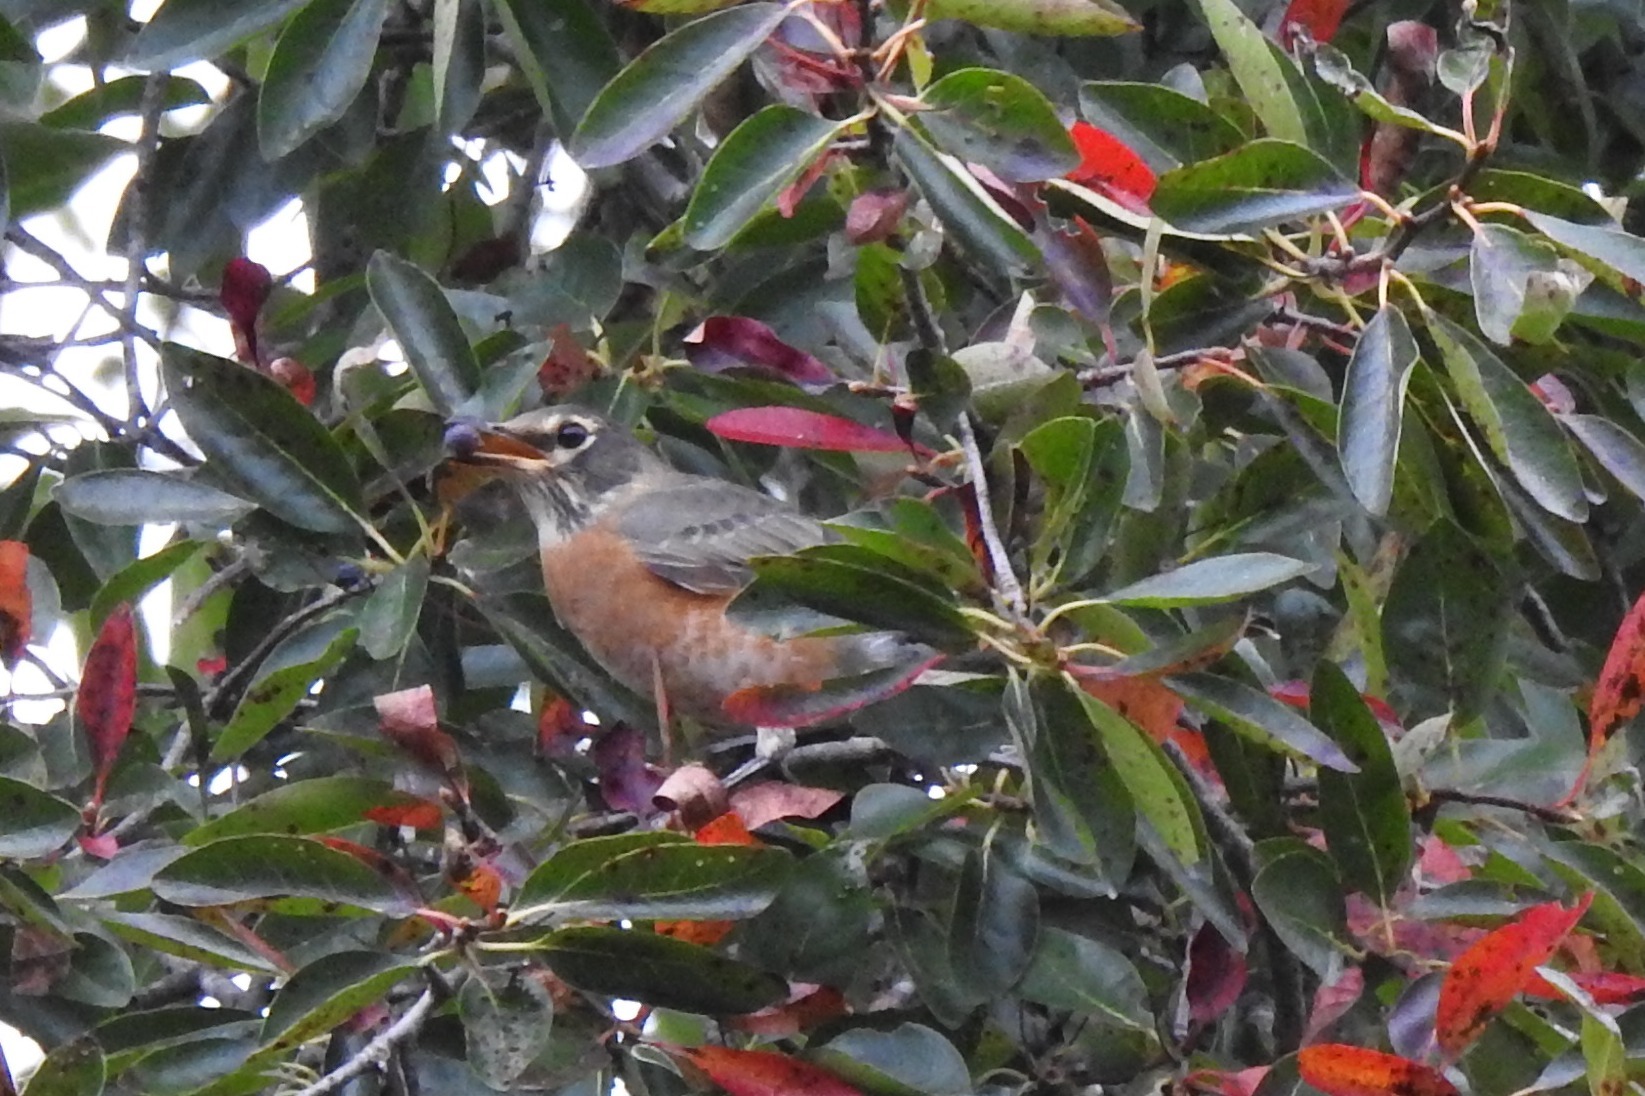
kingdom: Animalia
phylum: Chordata
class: Aves
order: Passeriformes
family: Turdidae
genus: Turdus
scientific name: Turdus migratorius
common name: American robin
